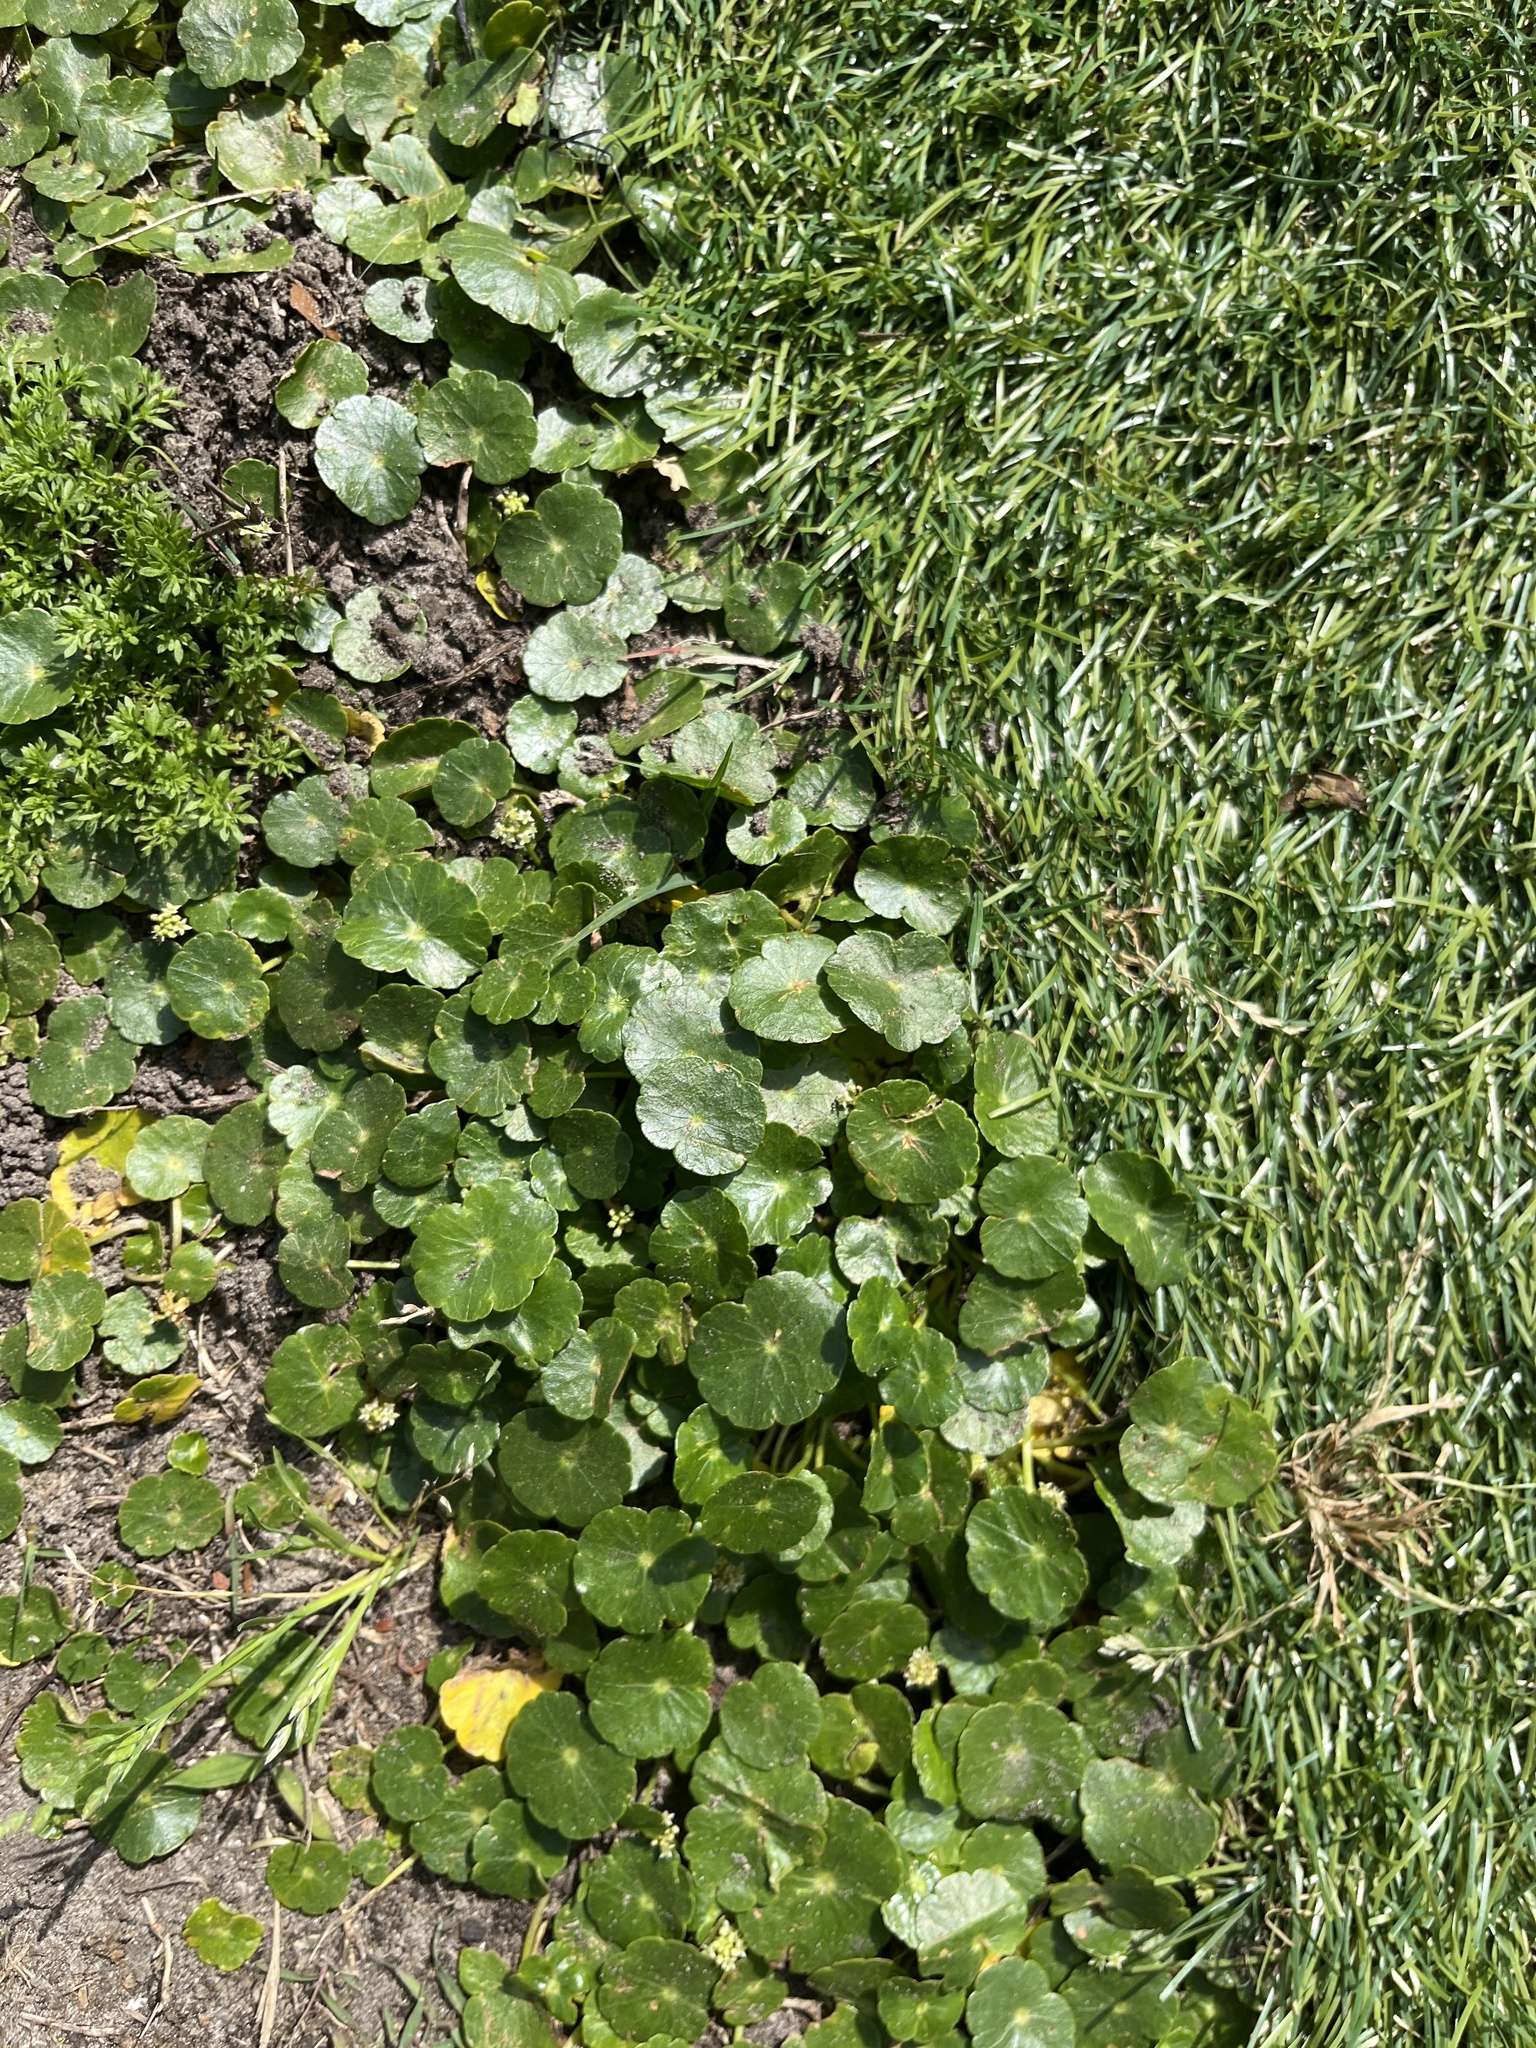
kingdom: Plantae
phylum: Tracheophyta
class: Magnoliopsida
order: Apiales
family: Araliaceae
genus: Hydrocotyle
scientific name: Hydrocotyle bonariensis
